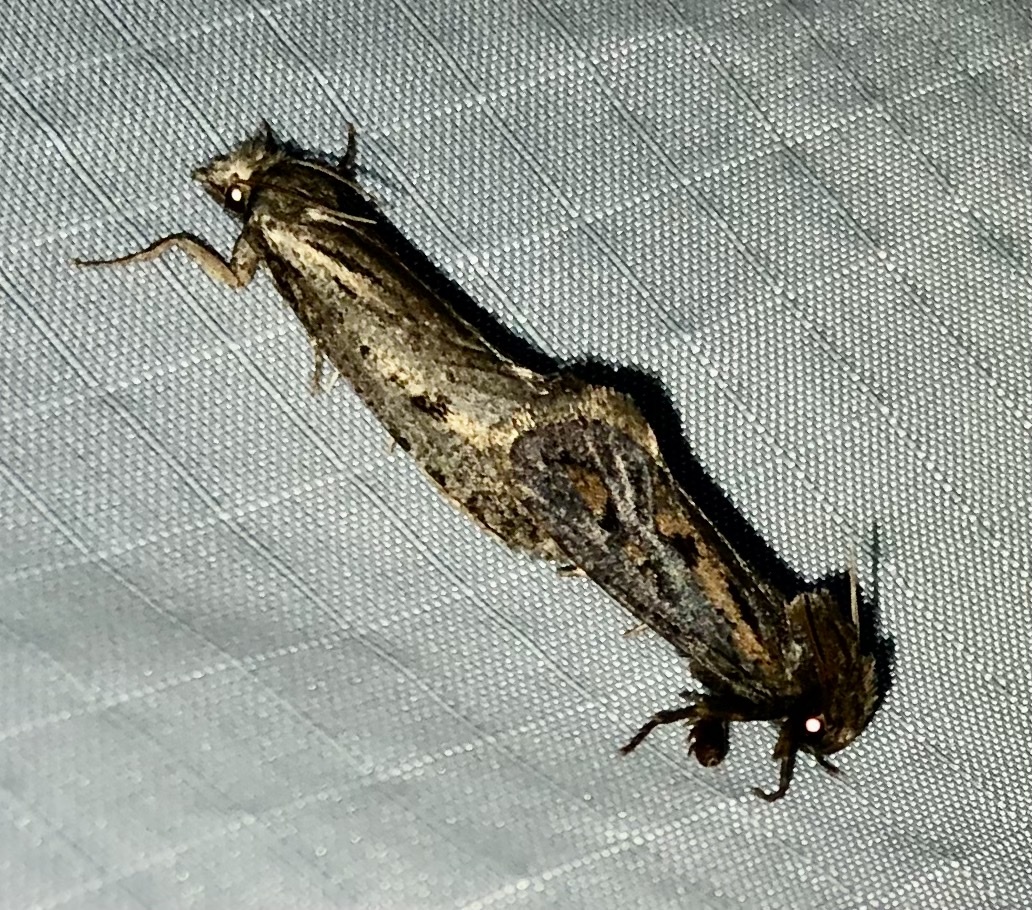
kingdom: Animalia
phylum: Arthropoda
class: Insecta
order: Lepidoptera
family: Tineidae
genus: Acrolophus
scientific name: Acrolophus popeanella
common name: Clemens' grass tubeworm moth
